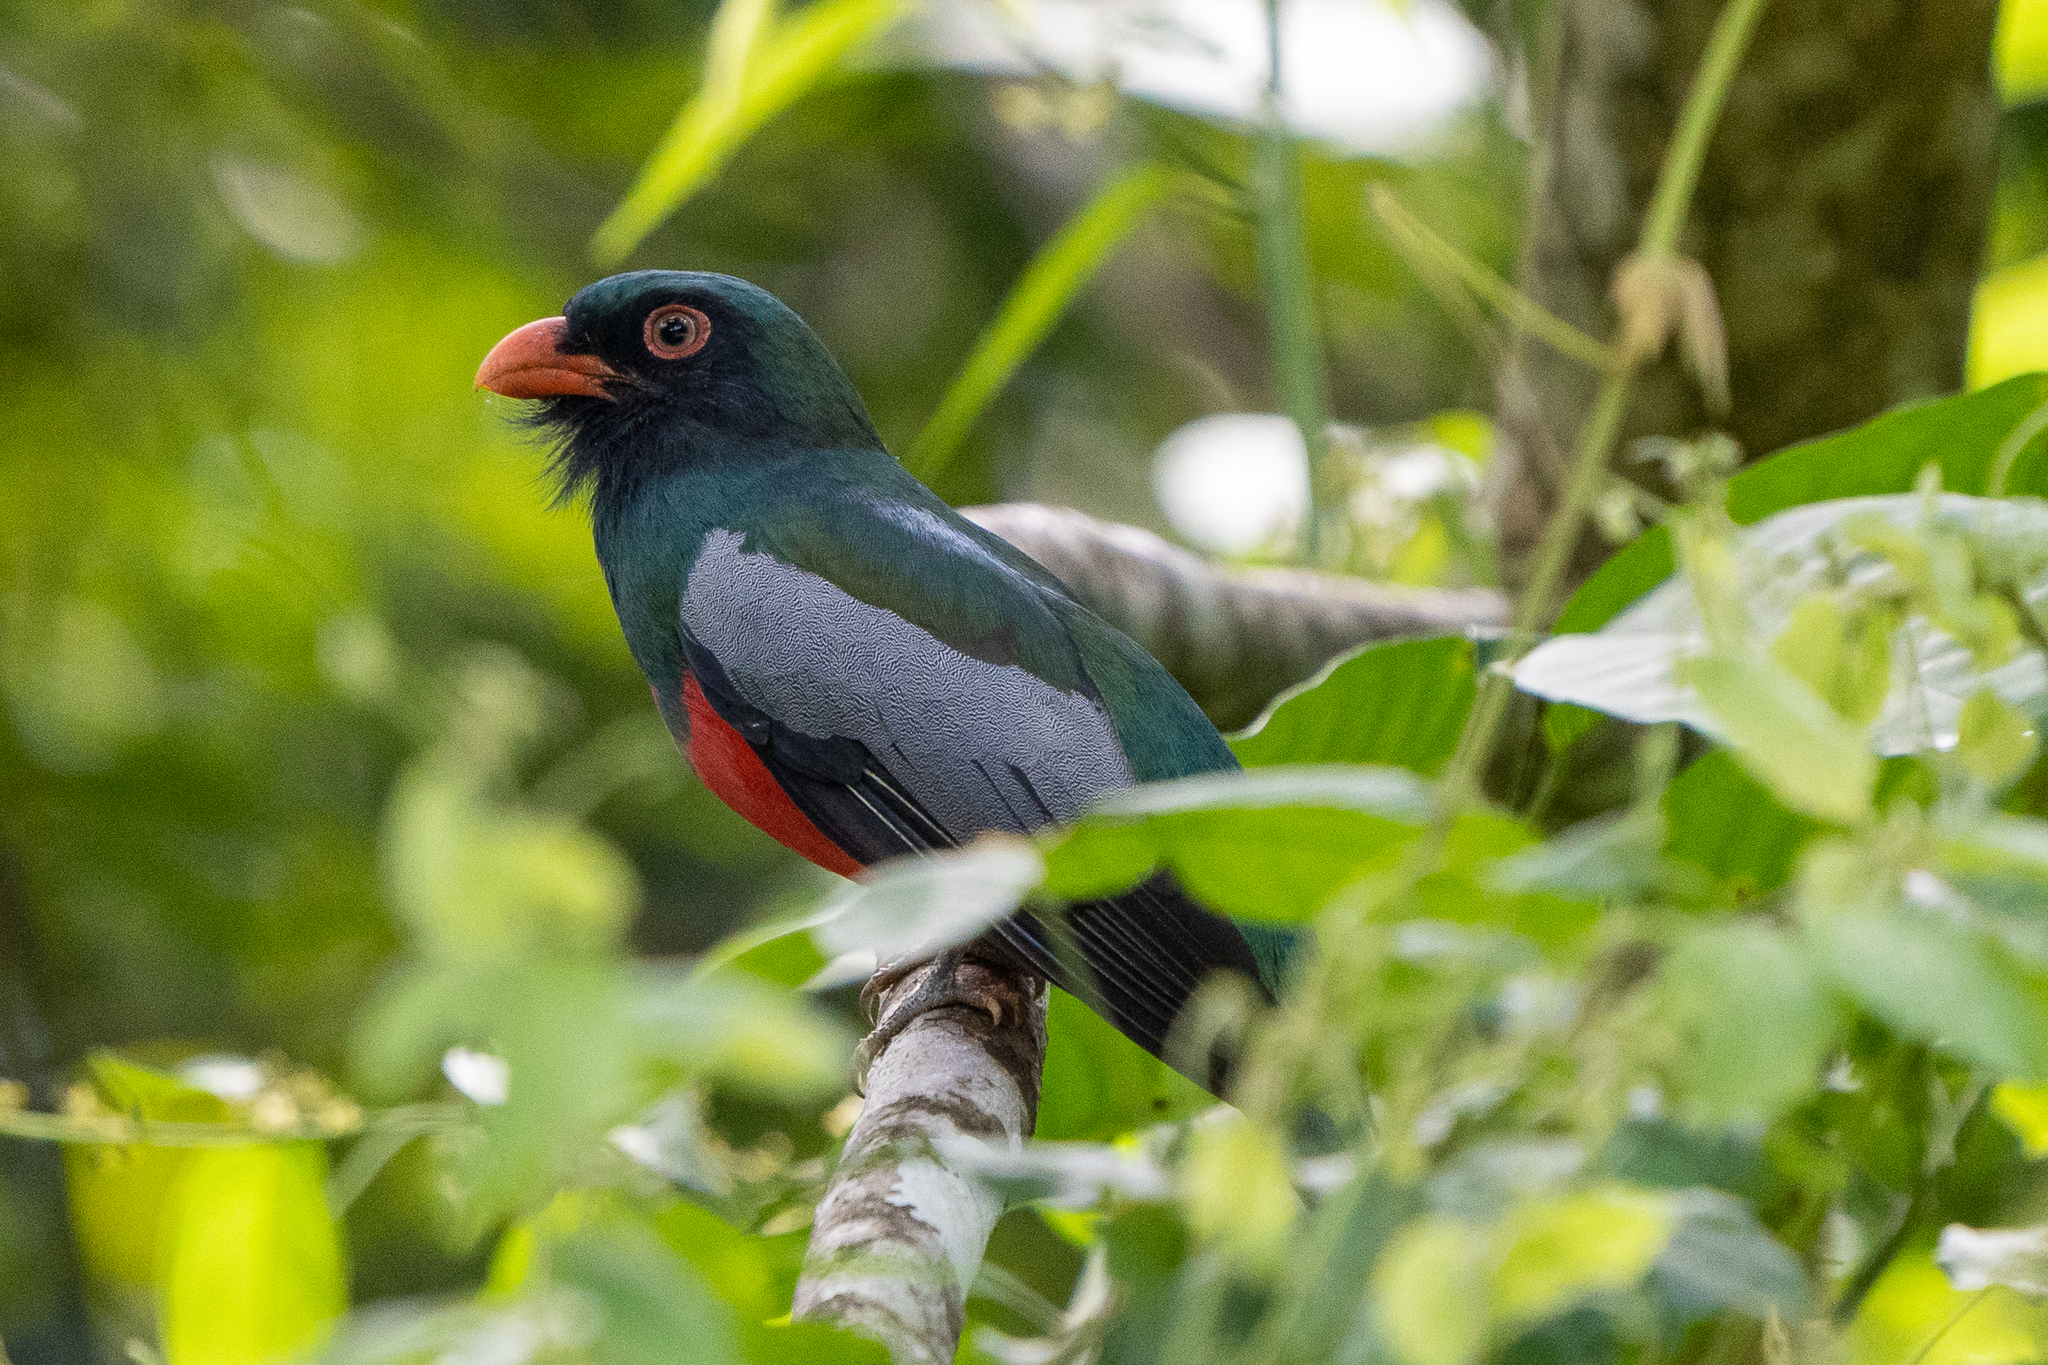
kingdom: Animalia
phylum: Chordata
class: Aves
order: Trogoniformes
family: Trogonidae
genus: Trogon
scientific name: Trogon massena
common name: Slaty-tailed trogon
